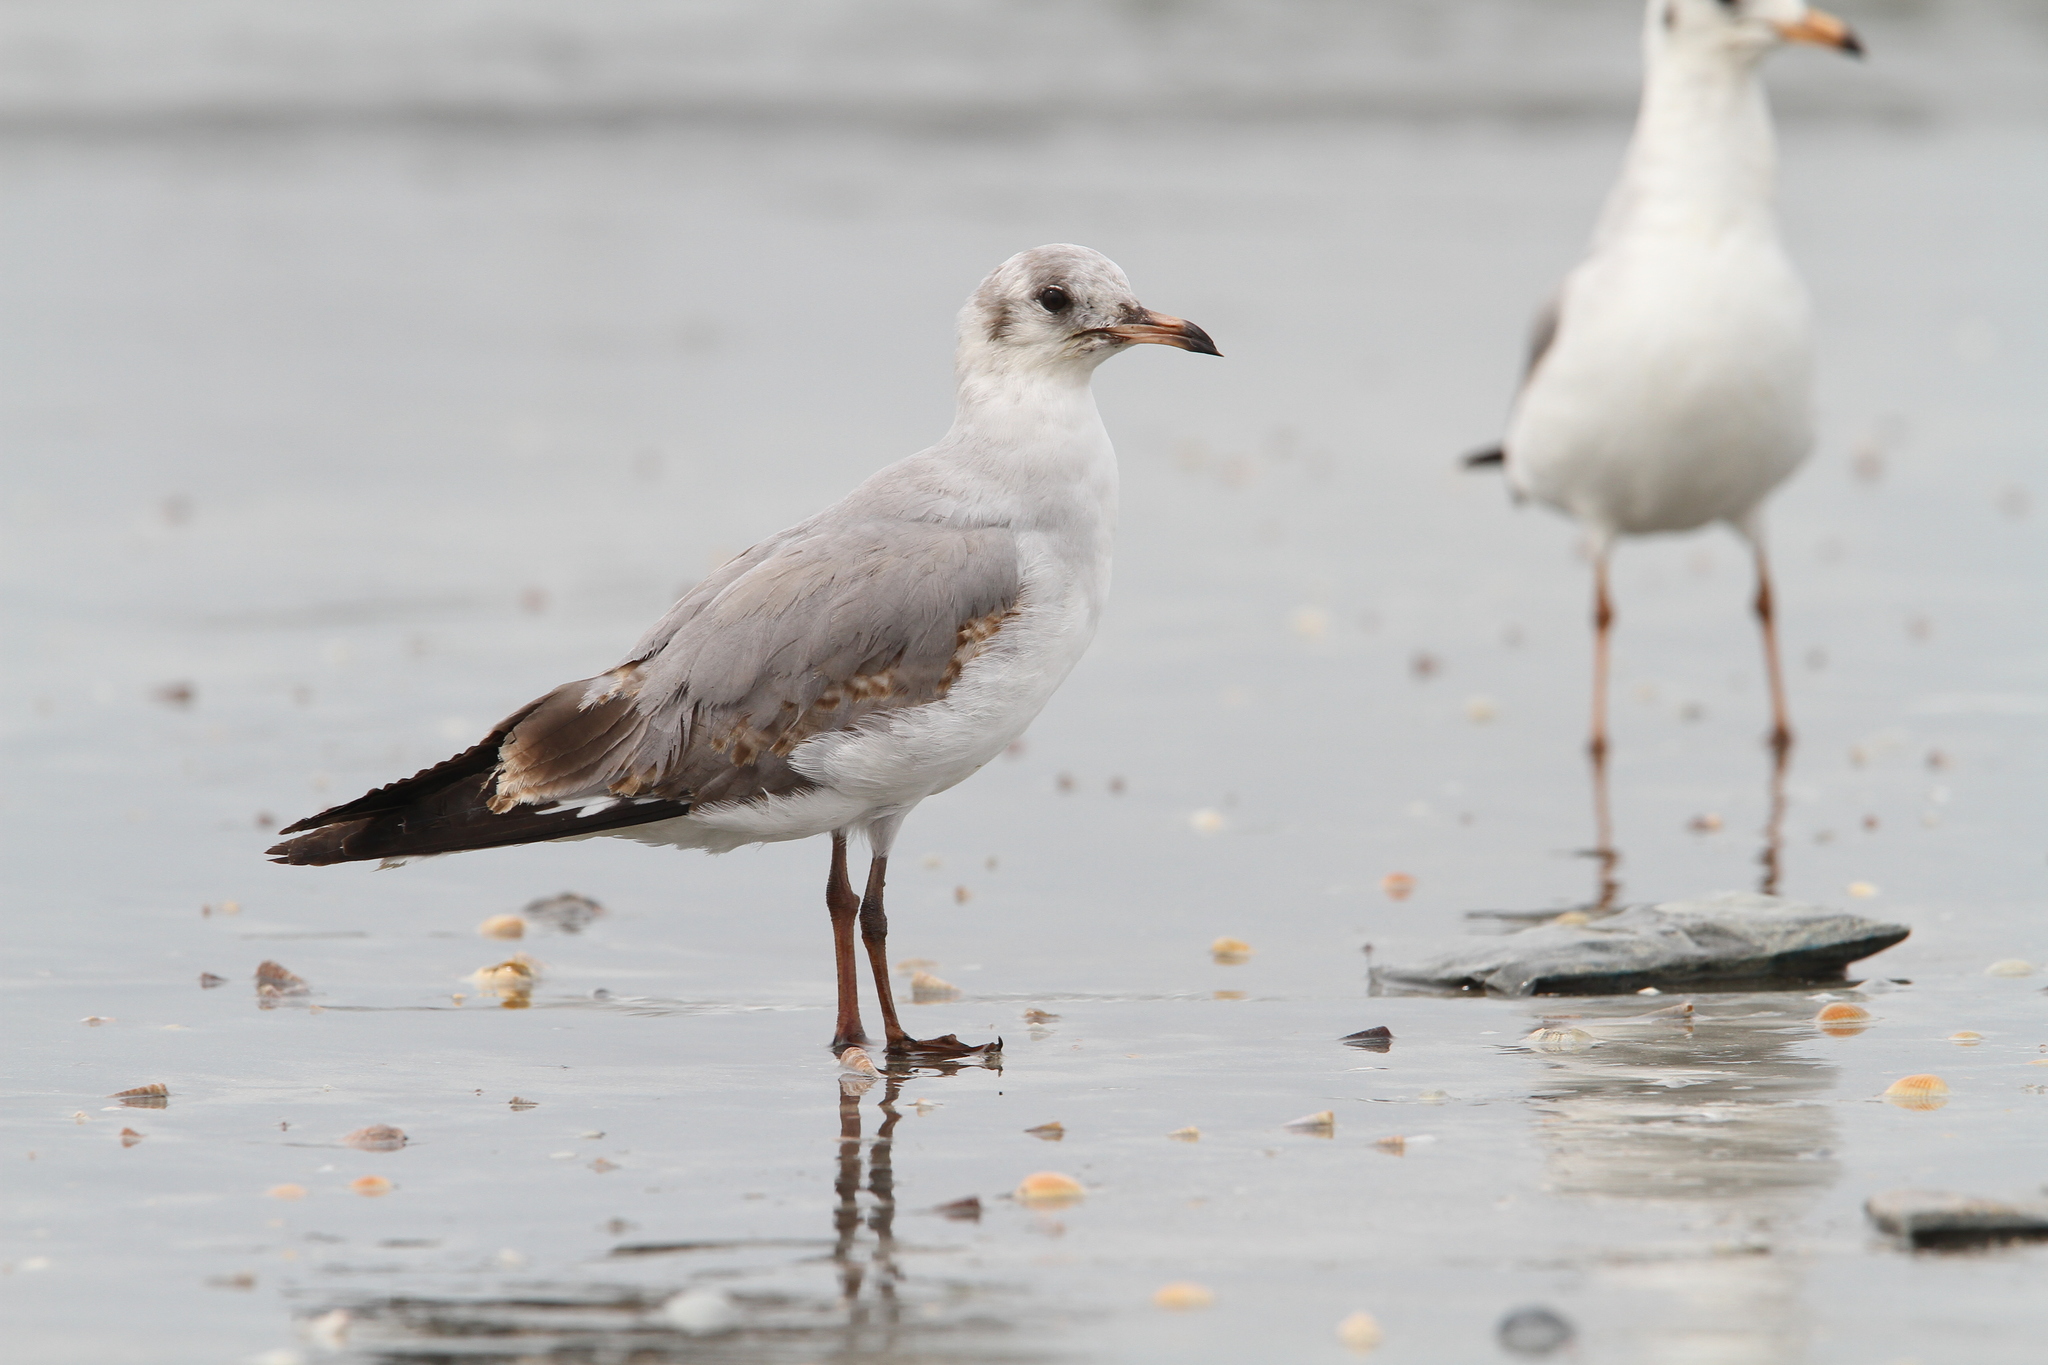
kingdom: Animalia
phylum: Chordata
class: Aves
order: Charadriiformes
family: Laridae
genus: Chroicocephalus
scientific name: Chroicocephalus cirrocephalus
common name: Grey-headed gull
